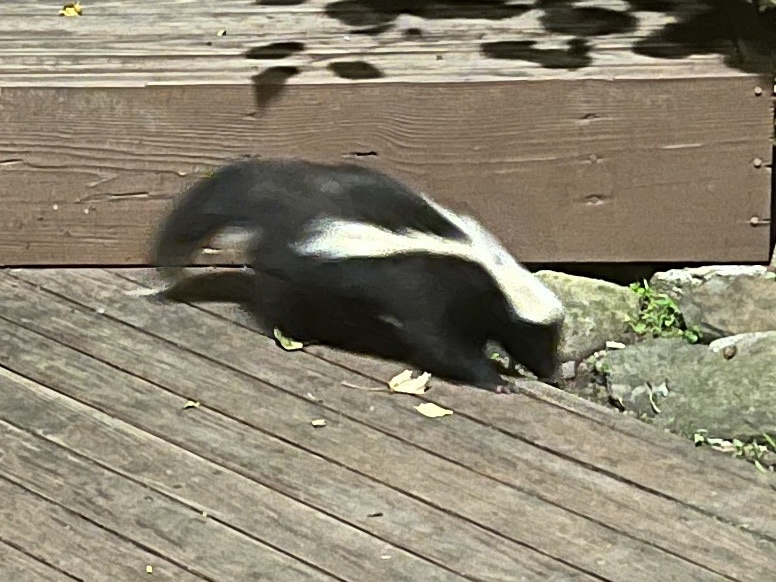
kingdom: Animalia
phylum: Chordata
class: Mammalia
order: Carnivora
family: Mephitidae
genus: Mephitis
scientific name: Mephitis mephitis
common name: Striped skunk
